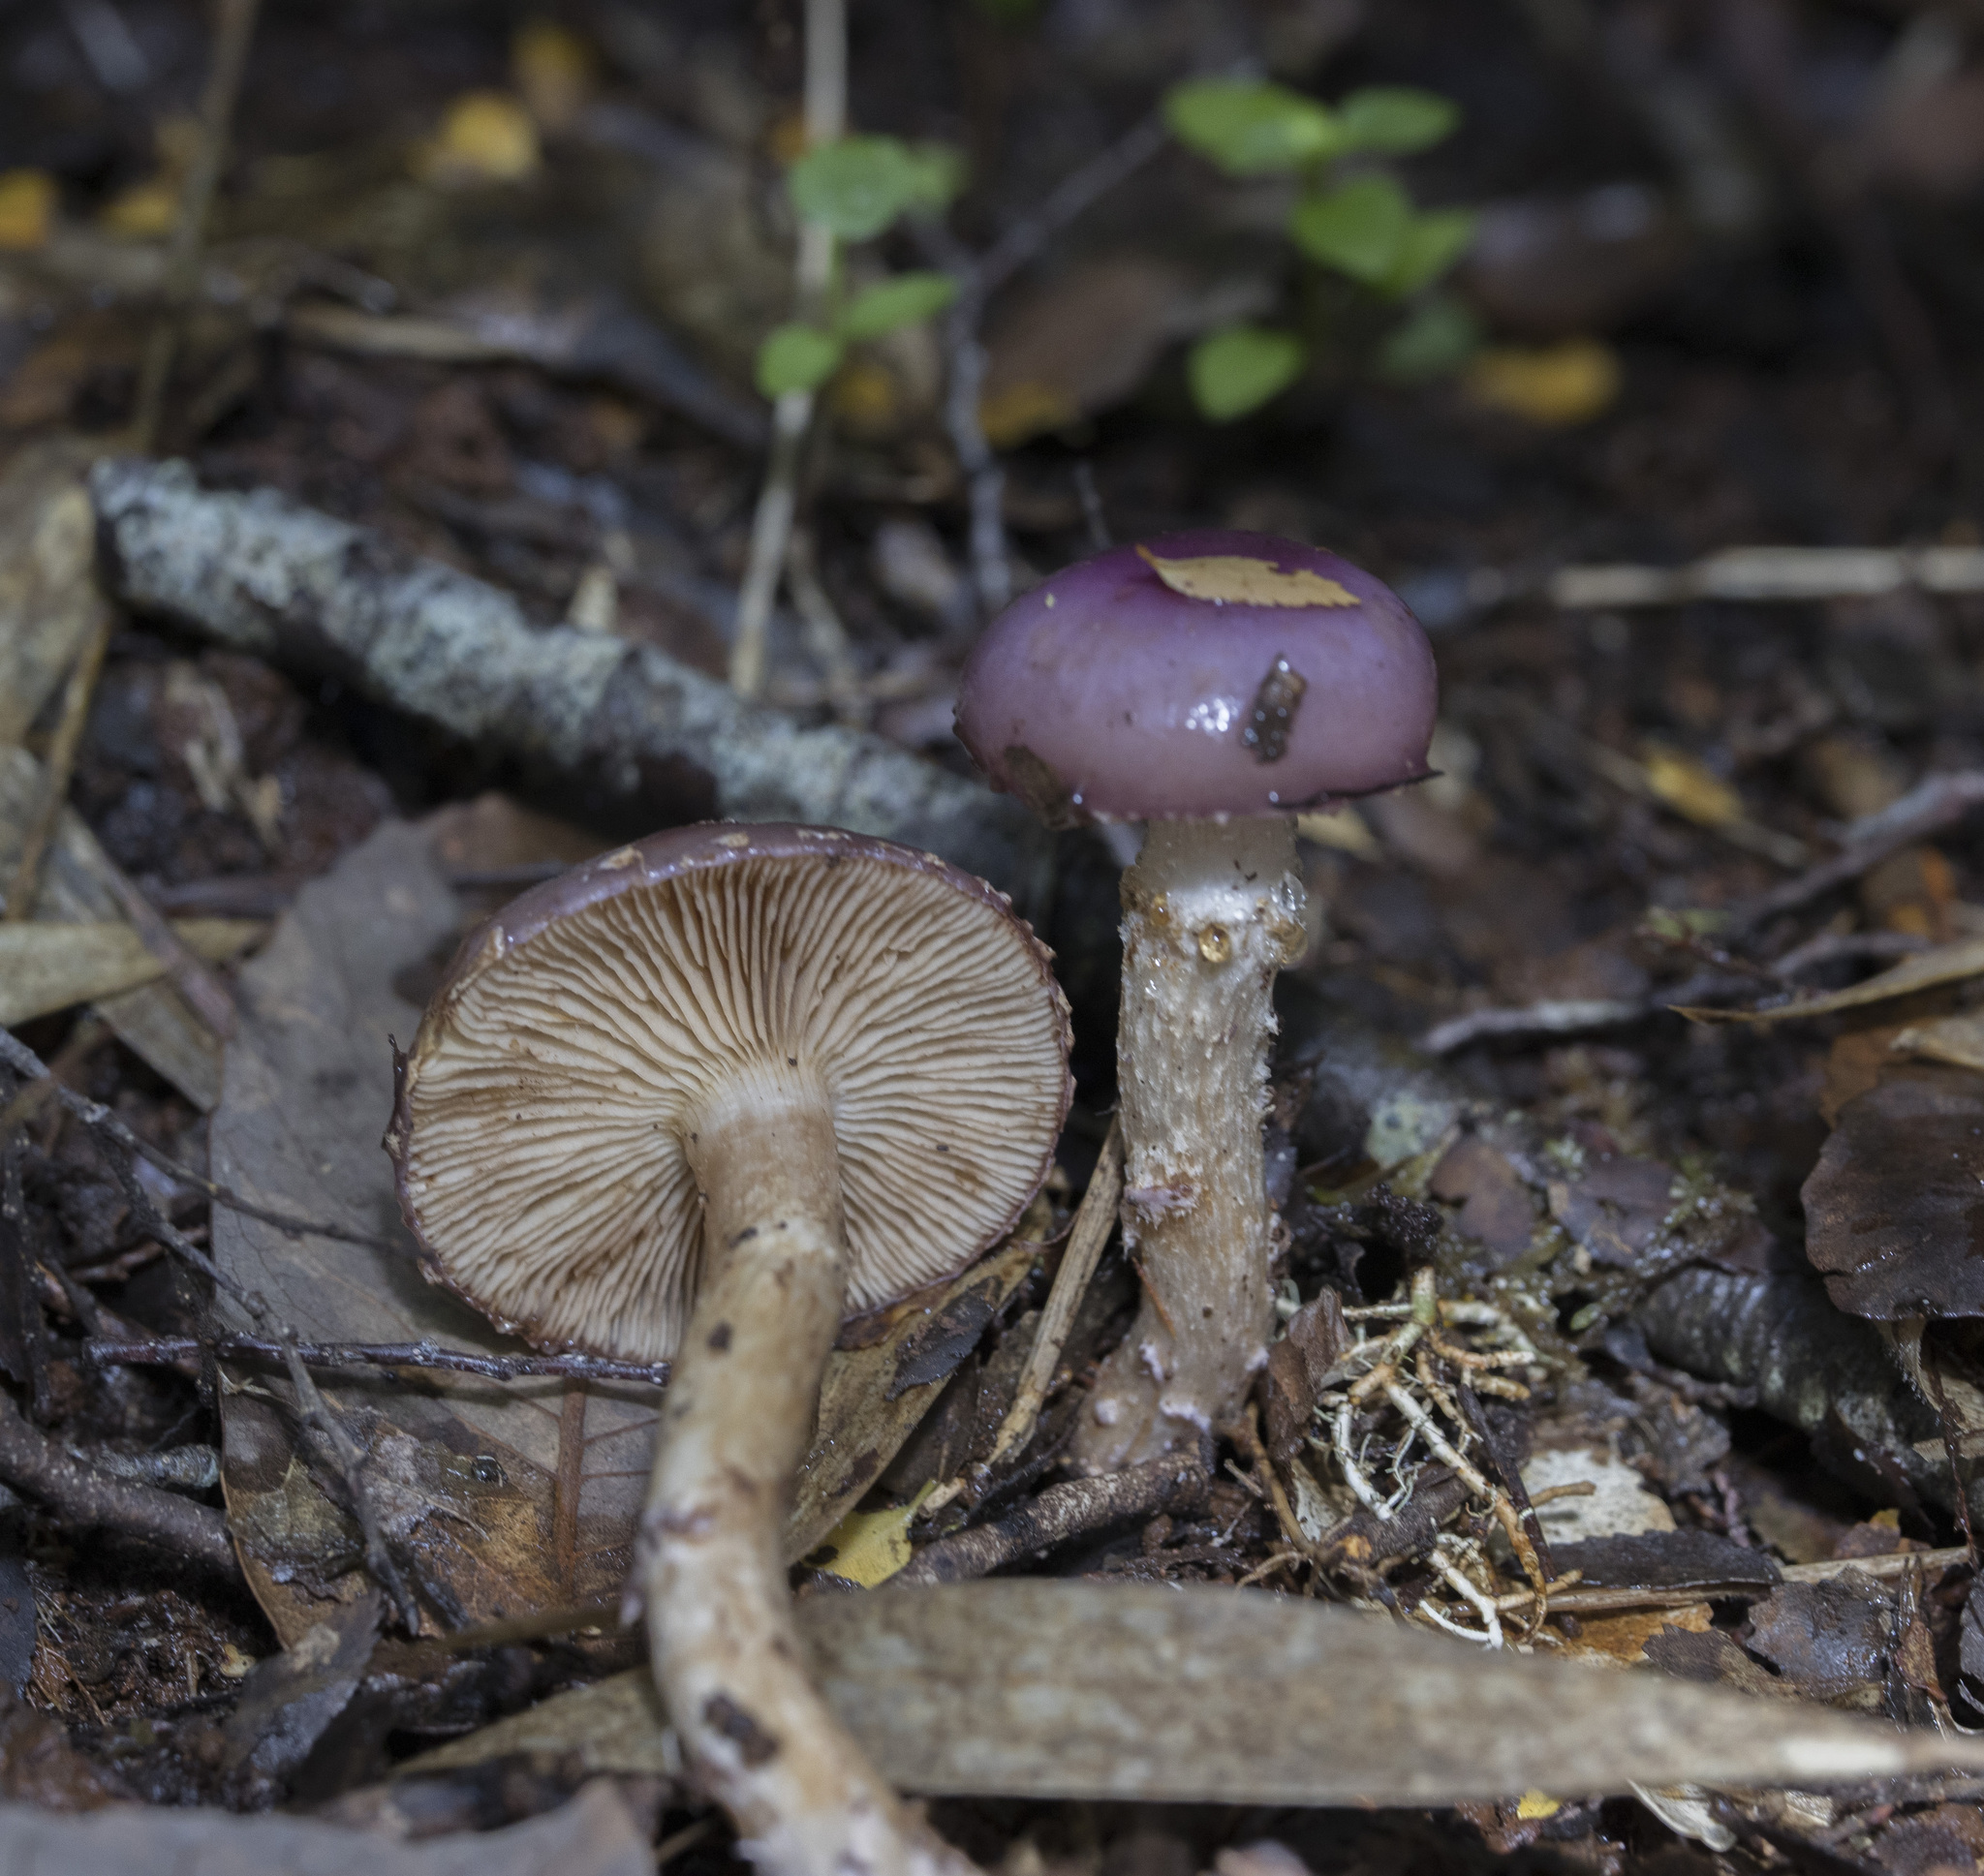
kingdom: Fungi
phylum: Basidiomycota
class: Agaricomycetes
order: Agaricales
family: Cortinariaceae
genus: Cortinarius
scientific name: Cortinarius lebre
